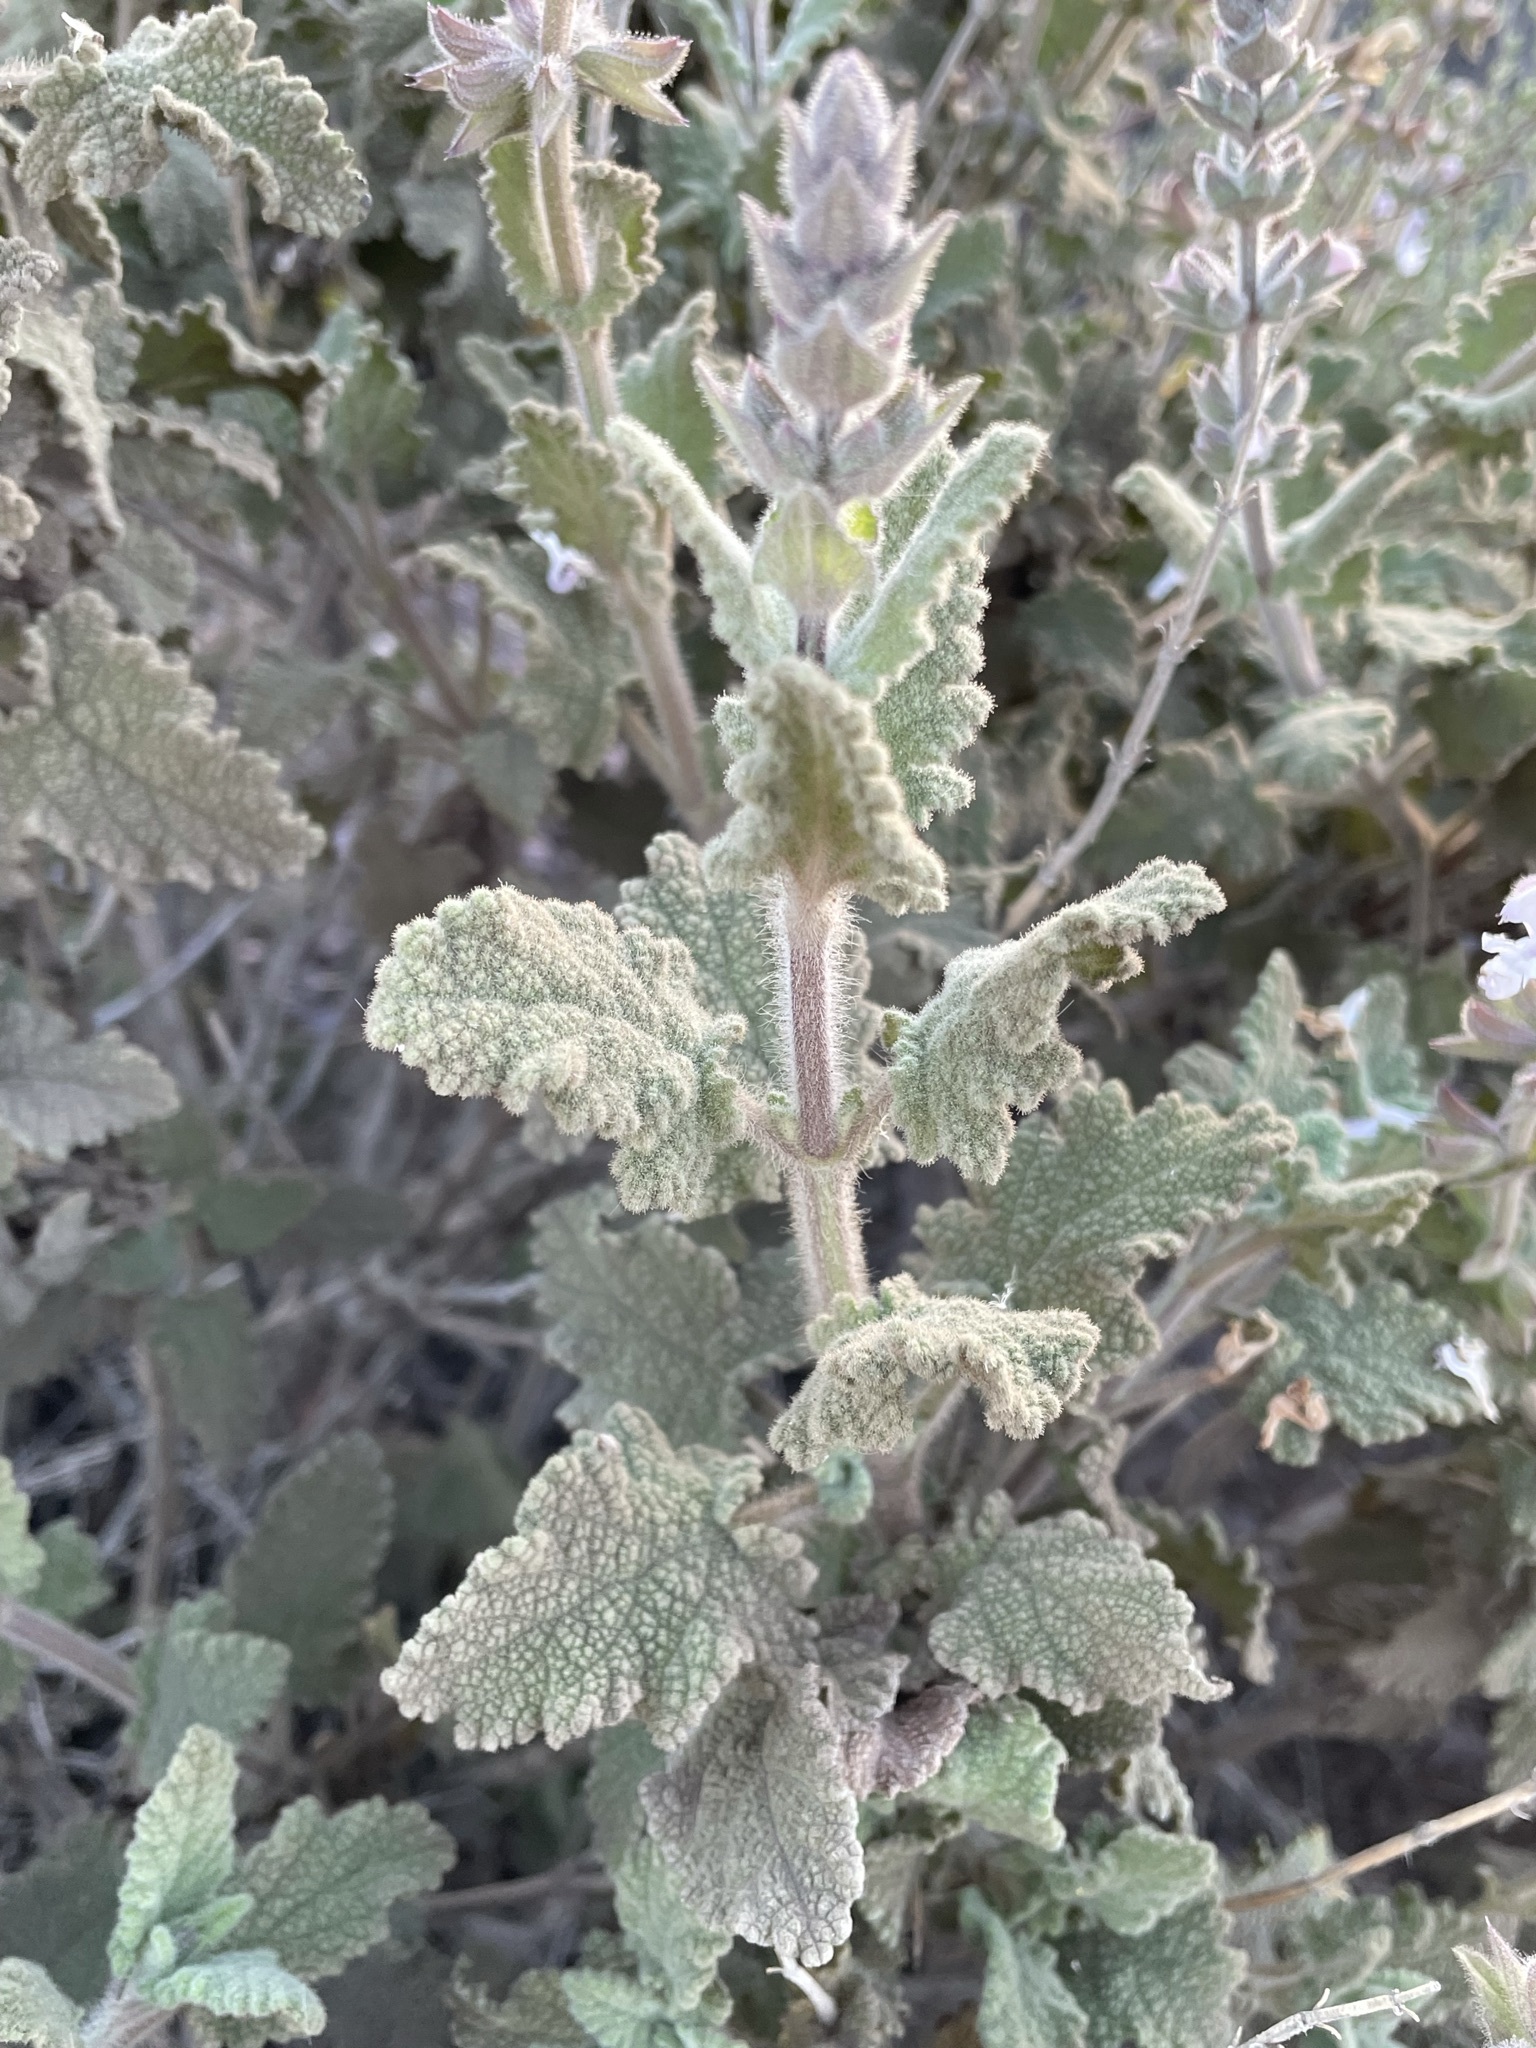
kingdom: Plantae
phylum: Tracheophyta
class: Magnoliopsida
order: Lamiales
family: Lamiaceae
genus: Salvia
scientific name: Salvia disermas
